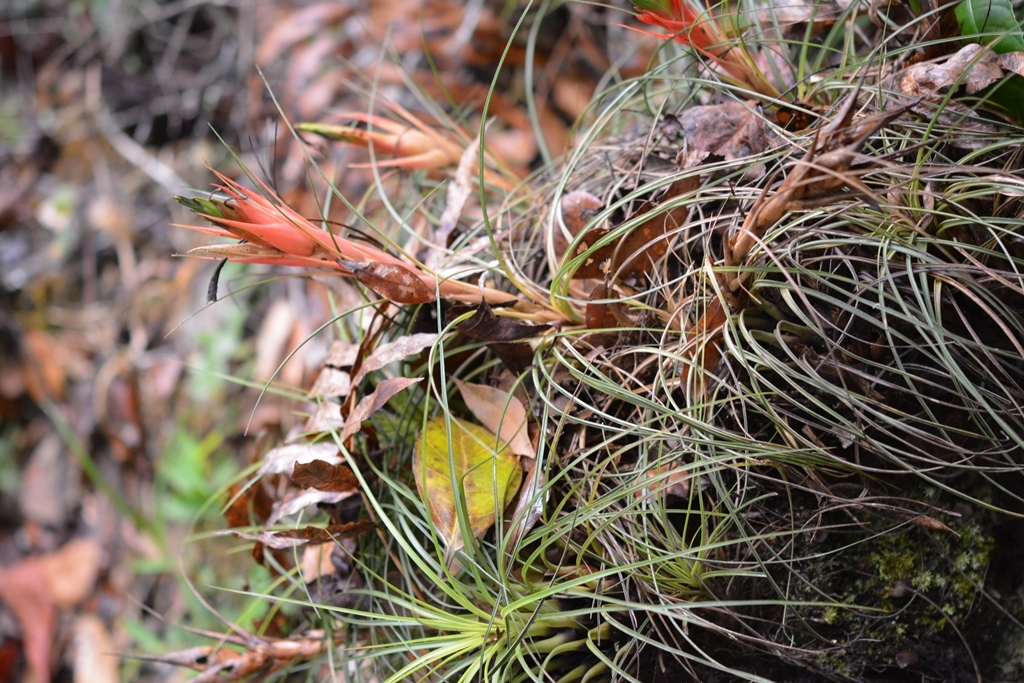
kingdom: Plantae
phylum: Tracheophyta
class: Liliopsida
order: Poales
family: Bromeliaceae
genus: Tillandsia
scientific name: Tillandsia punctulata
